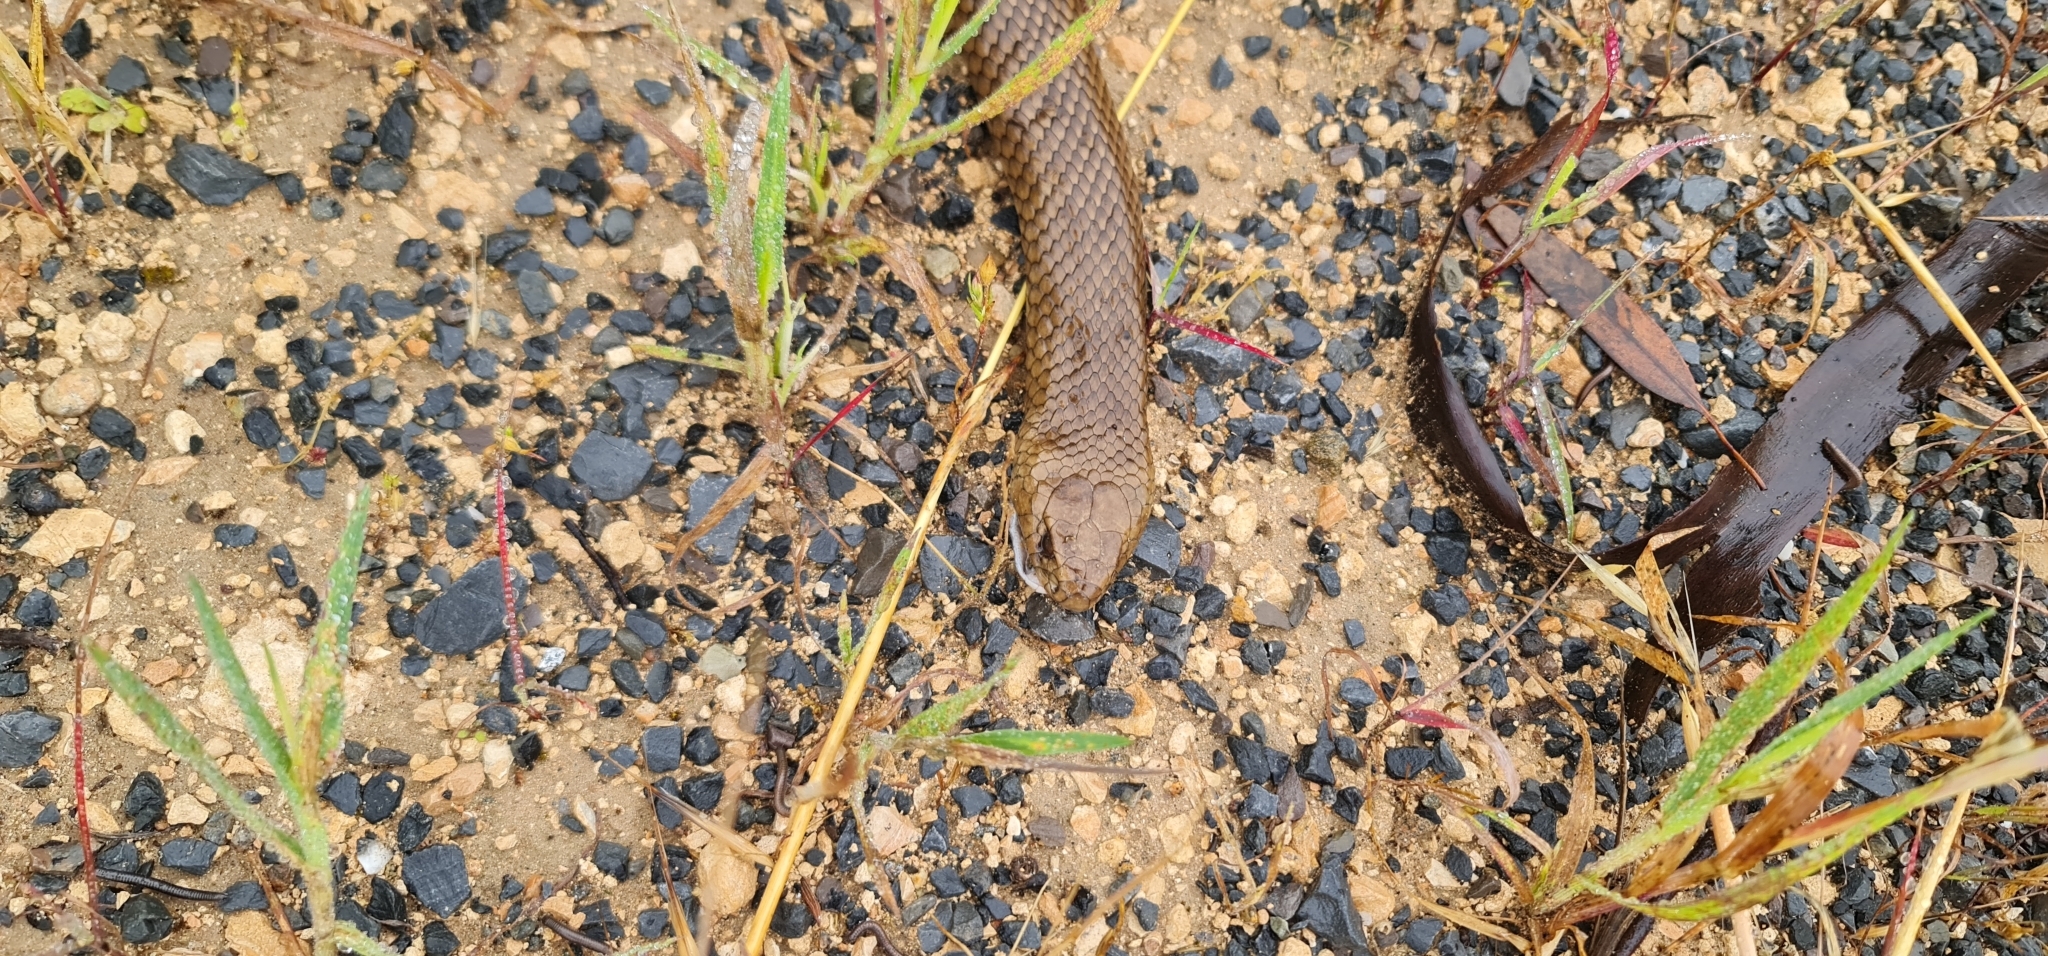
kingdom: Animalia
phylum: Chordata
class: Squamata
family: Elapidae
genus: Pseudonaja
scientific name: Pseudonaja textilis
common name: Eastern brown snake
